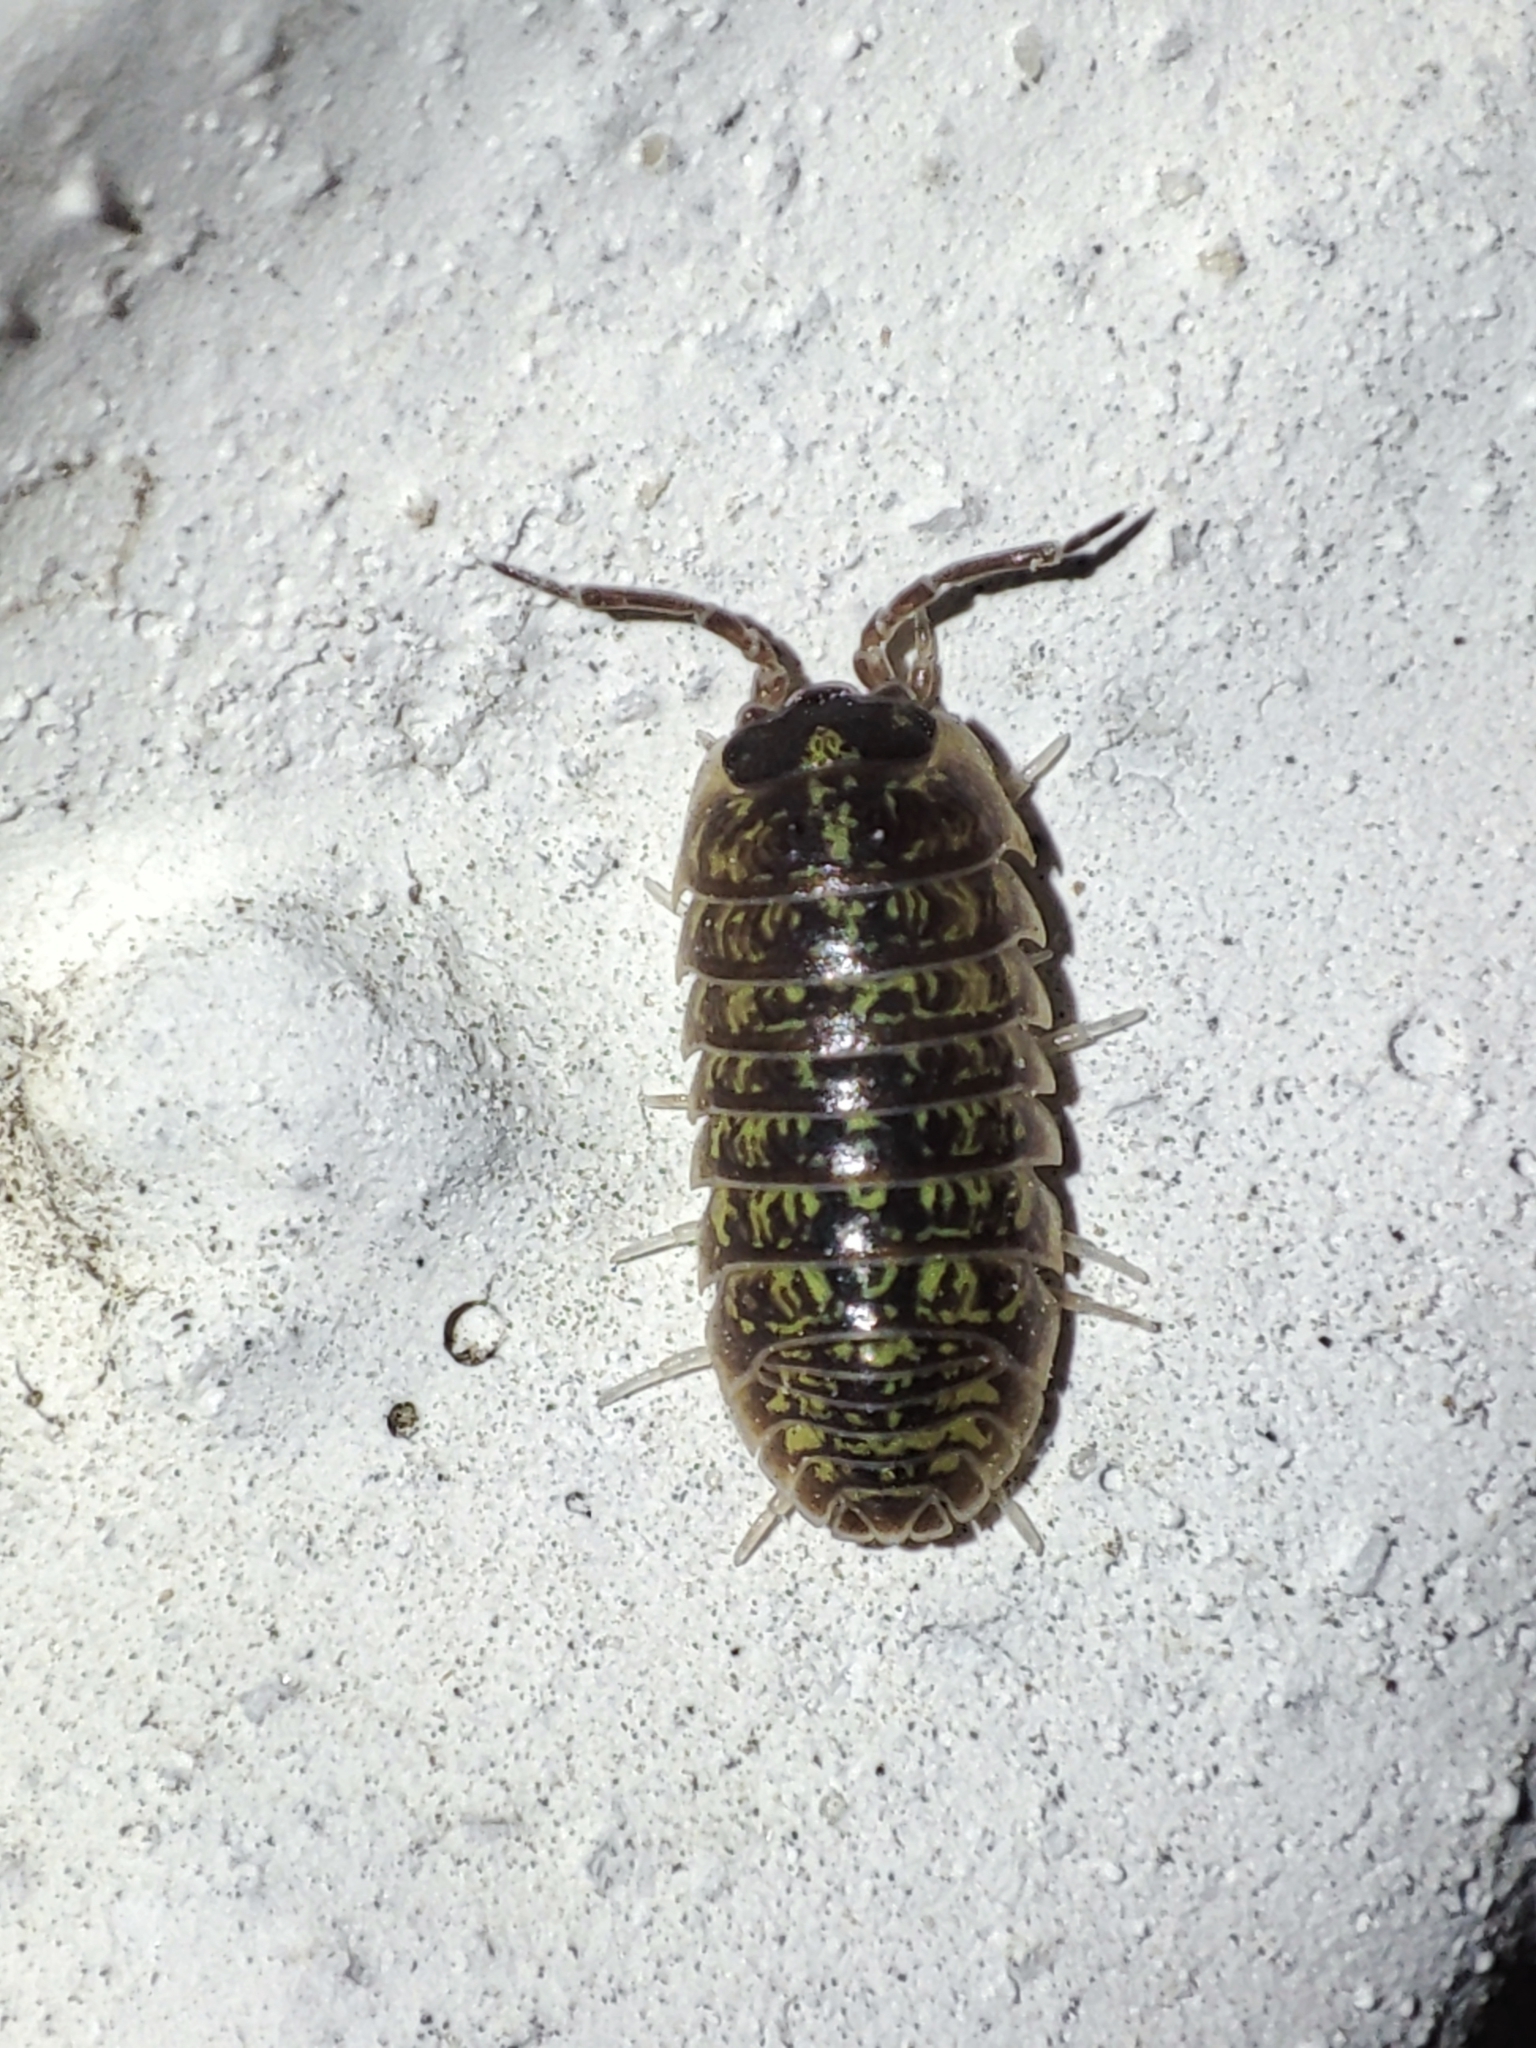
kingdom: Animalia
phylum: Arthropoda
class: Malacostraca
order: Isopoda
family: Armadillidiidae
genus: Armadillidium
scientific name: Armadillidium versicolor
